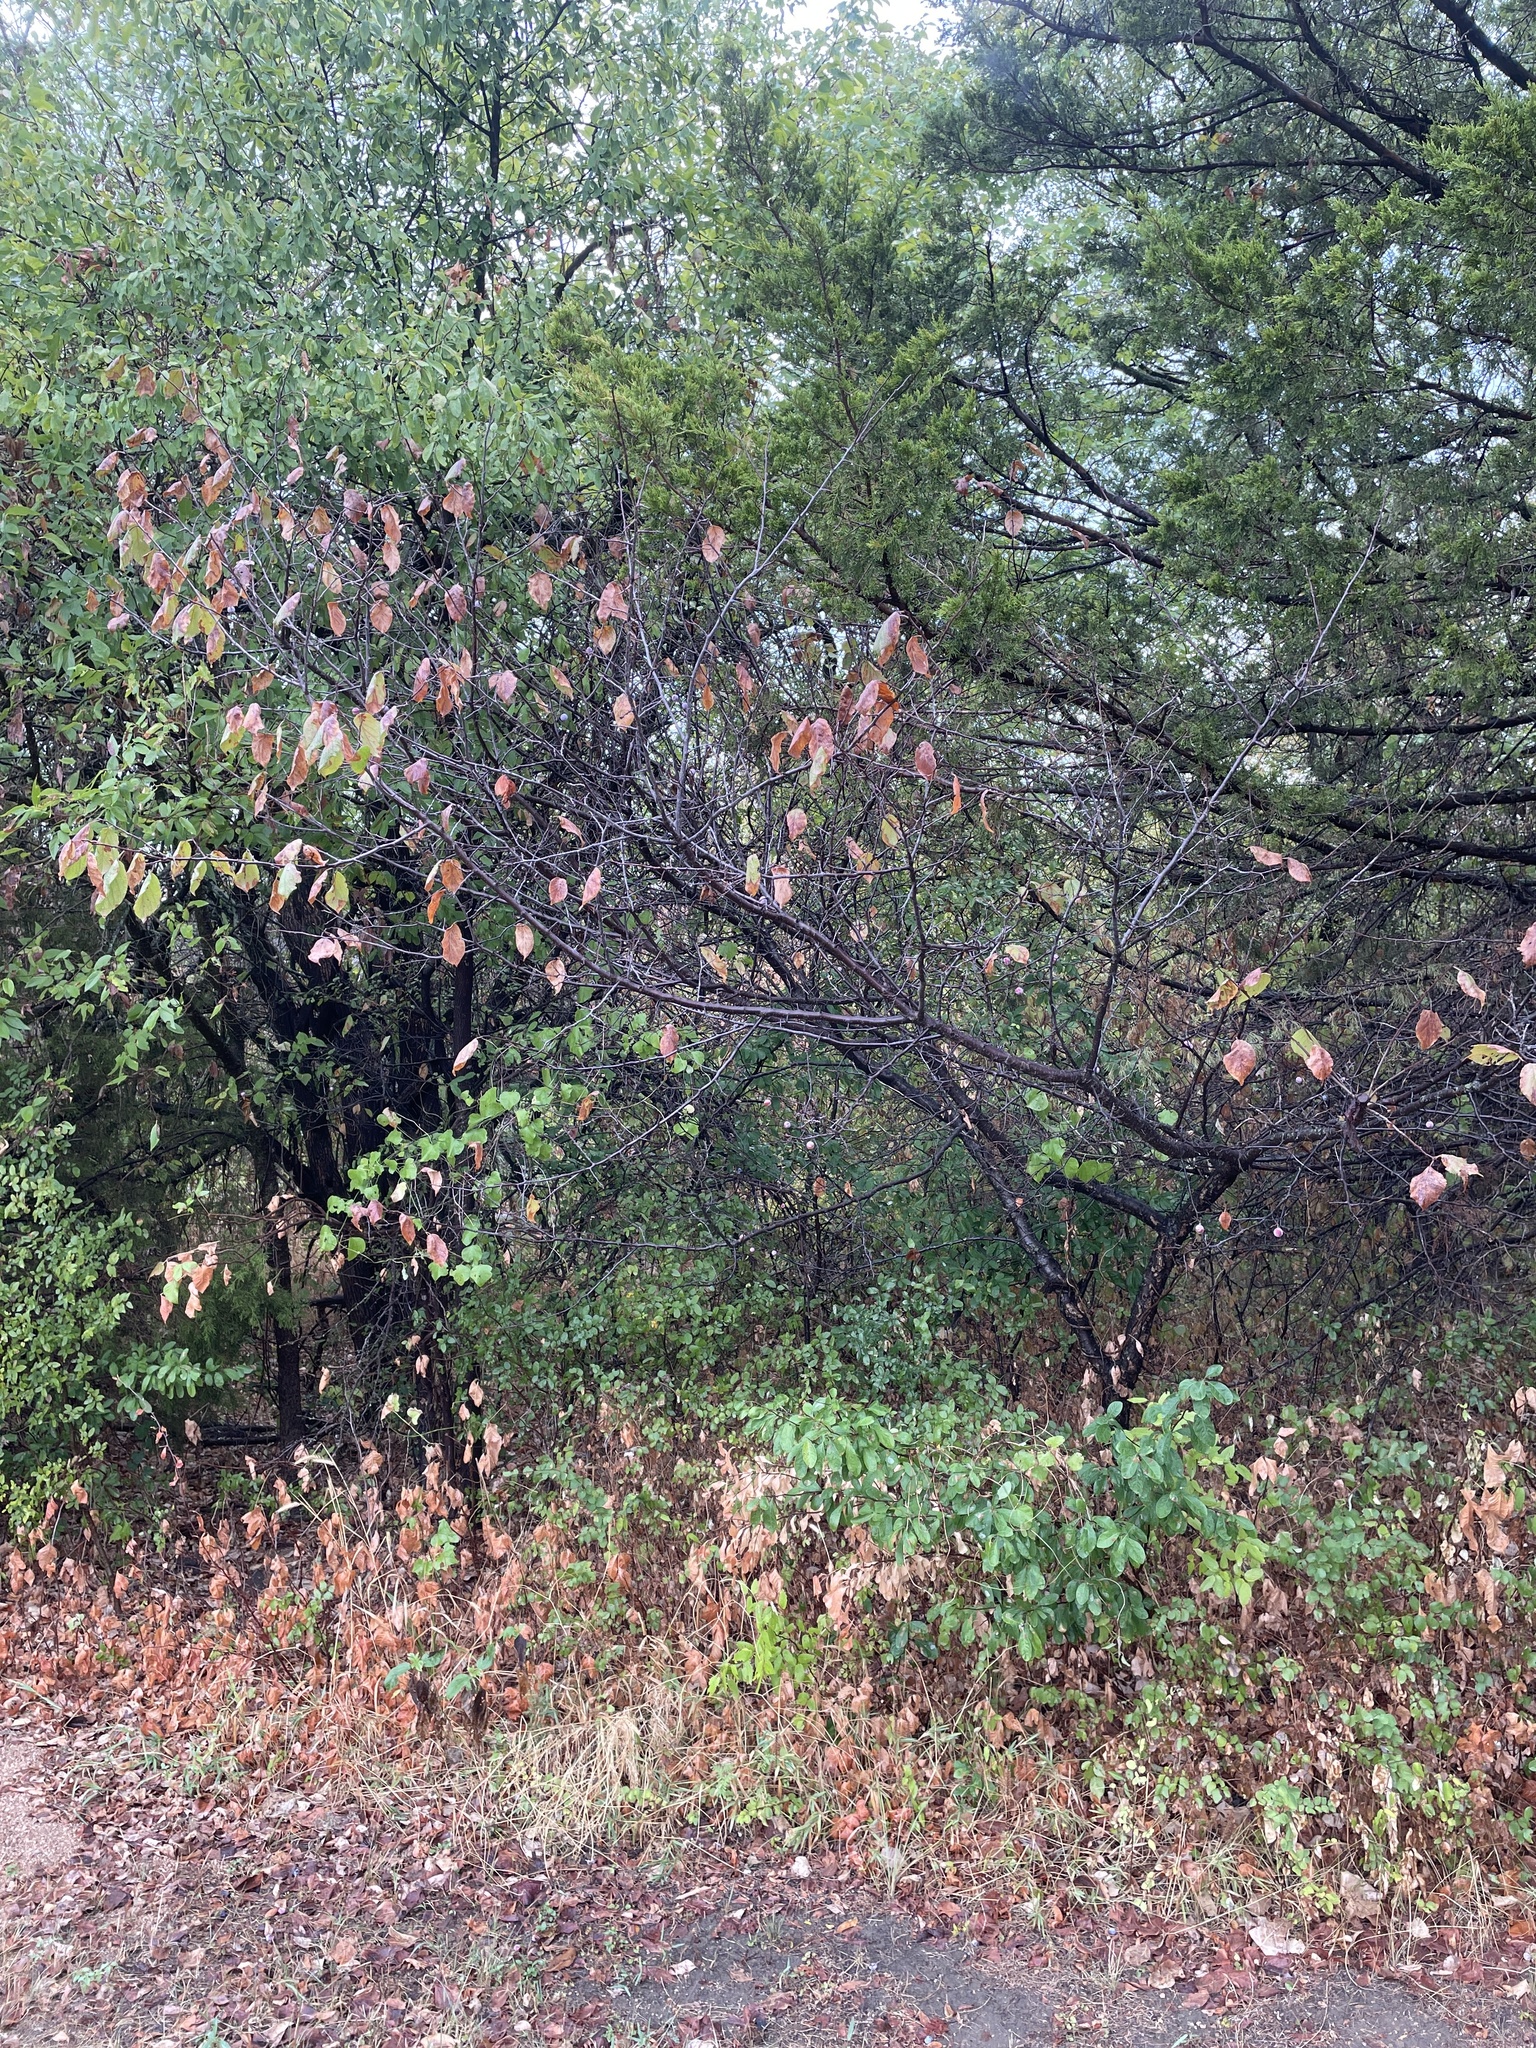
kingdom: Plantae
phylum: Tracheophyta
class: Magnoliopsida
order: Rosales
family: Rosaceae
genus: Prunus
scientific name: Prunus mexicana
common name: Mexican plum
